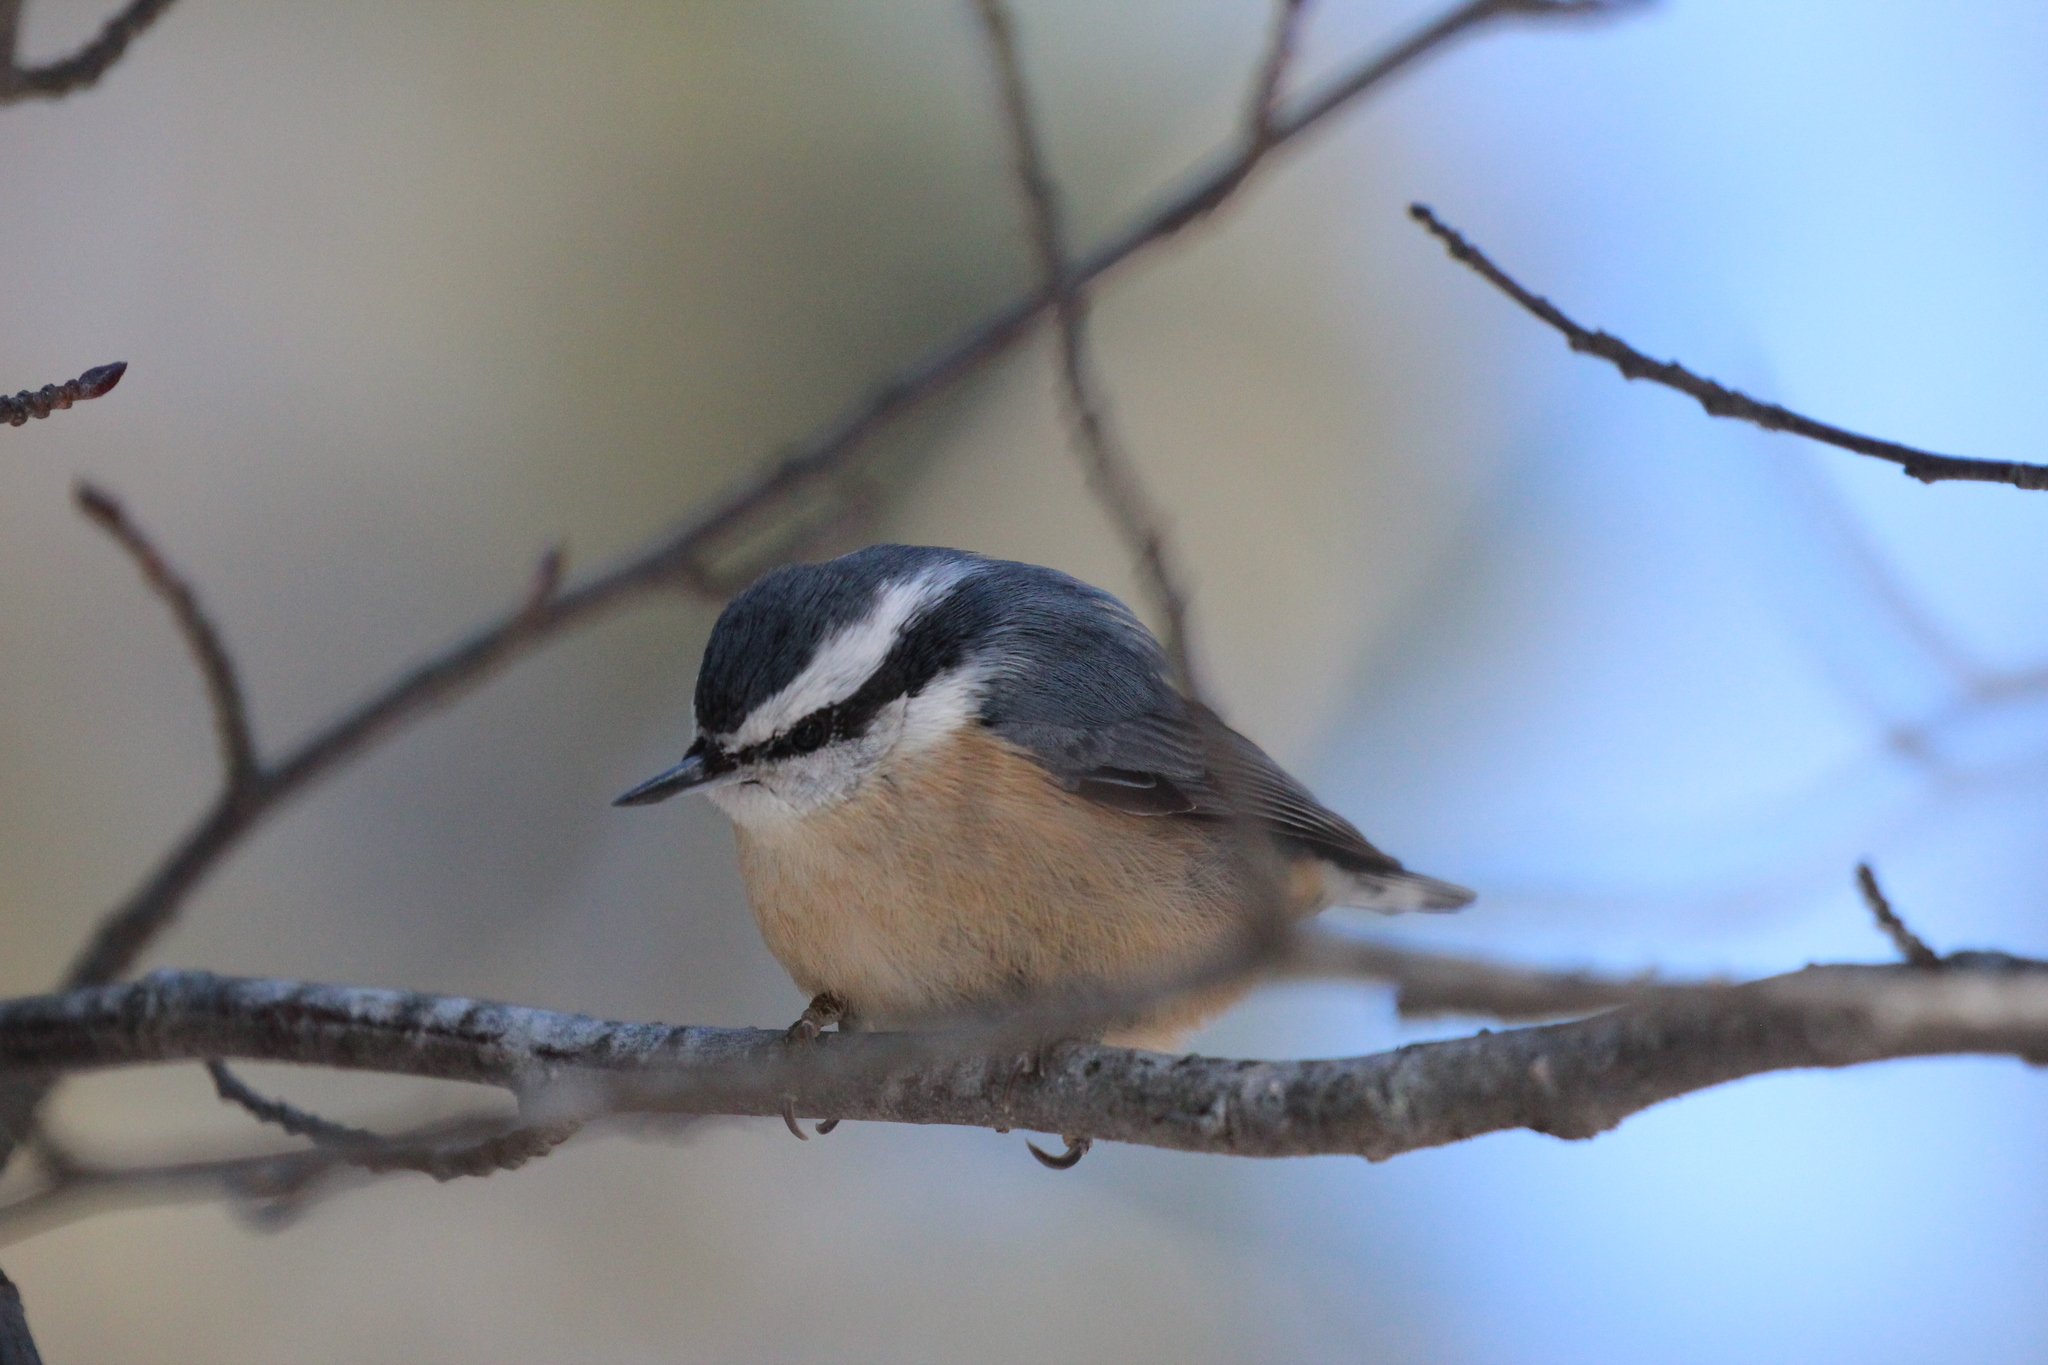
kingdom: Animalia
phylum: Chordata
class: Aves
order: Passeriformes
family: Sittidae
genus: Sitta
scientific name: Sitta canadensis
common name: Red-breasted nuthatch
